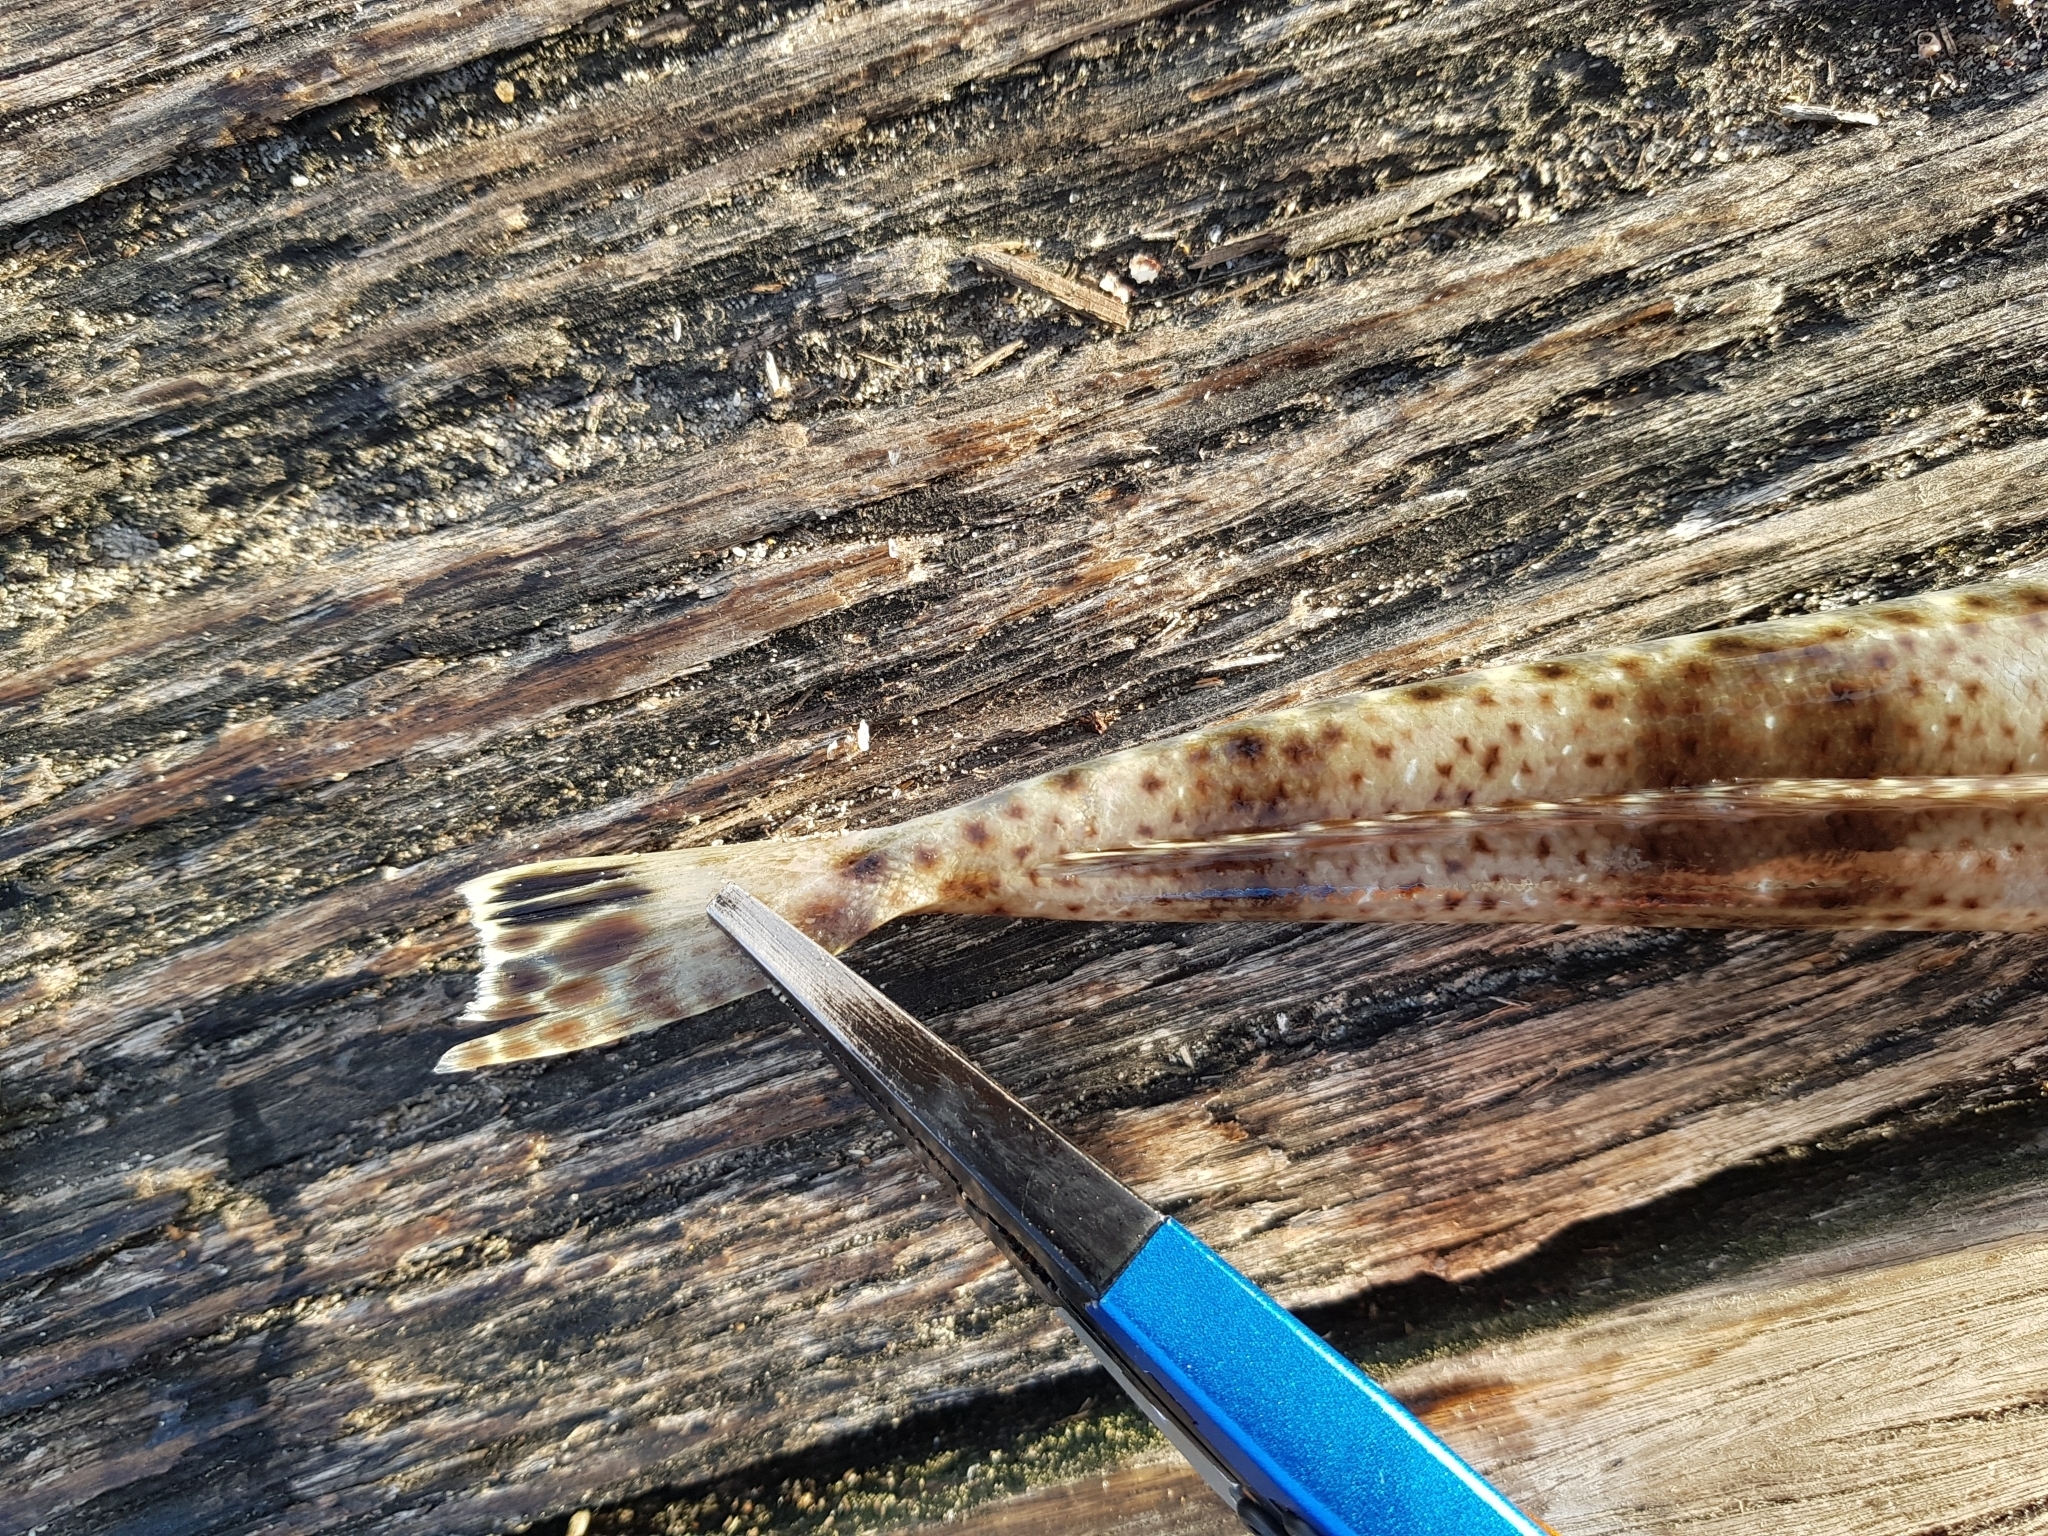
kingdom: Animalia
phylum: Chordata
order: Scorpaeniformes
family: Platycephalidae
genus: Platycephalus
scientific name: Platycephalus bassensis
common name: Sand flathead
